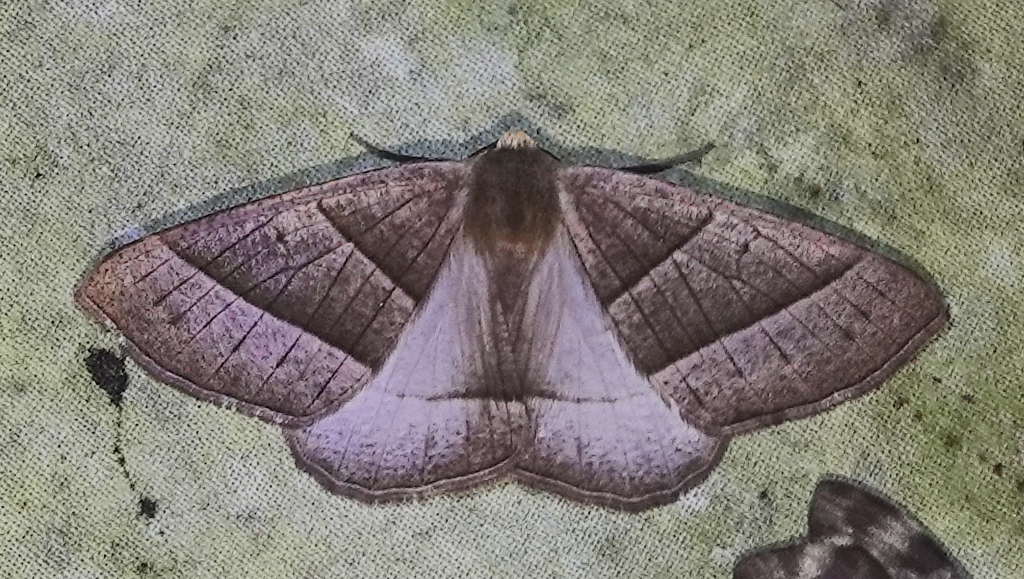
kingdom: Animalia
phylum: Arthropoda
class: Insecta
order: Lepidoptera
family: Geometridae
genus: Cosmophyga
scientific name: Cosmophyga privataria
